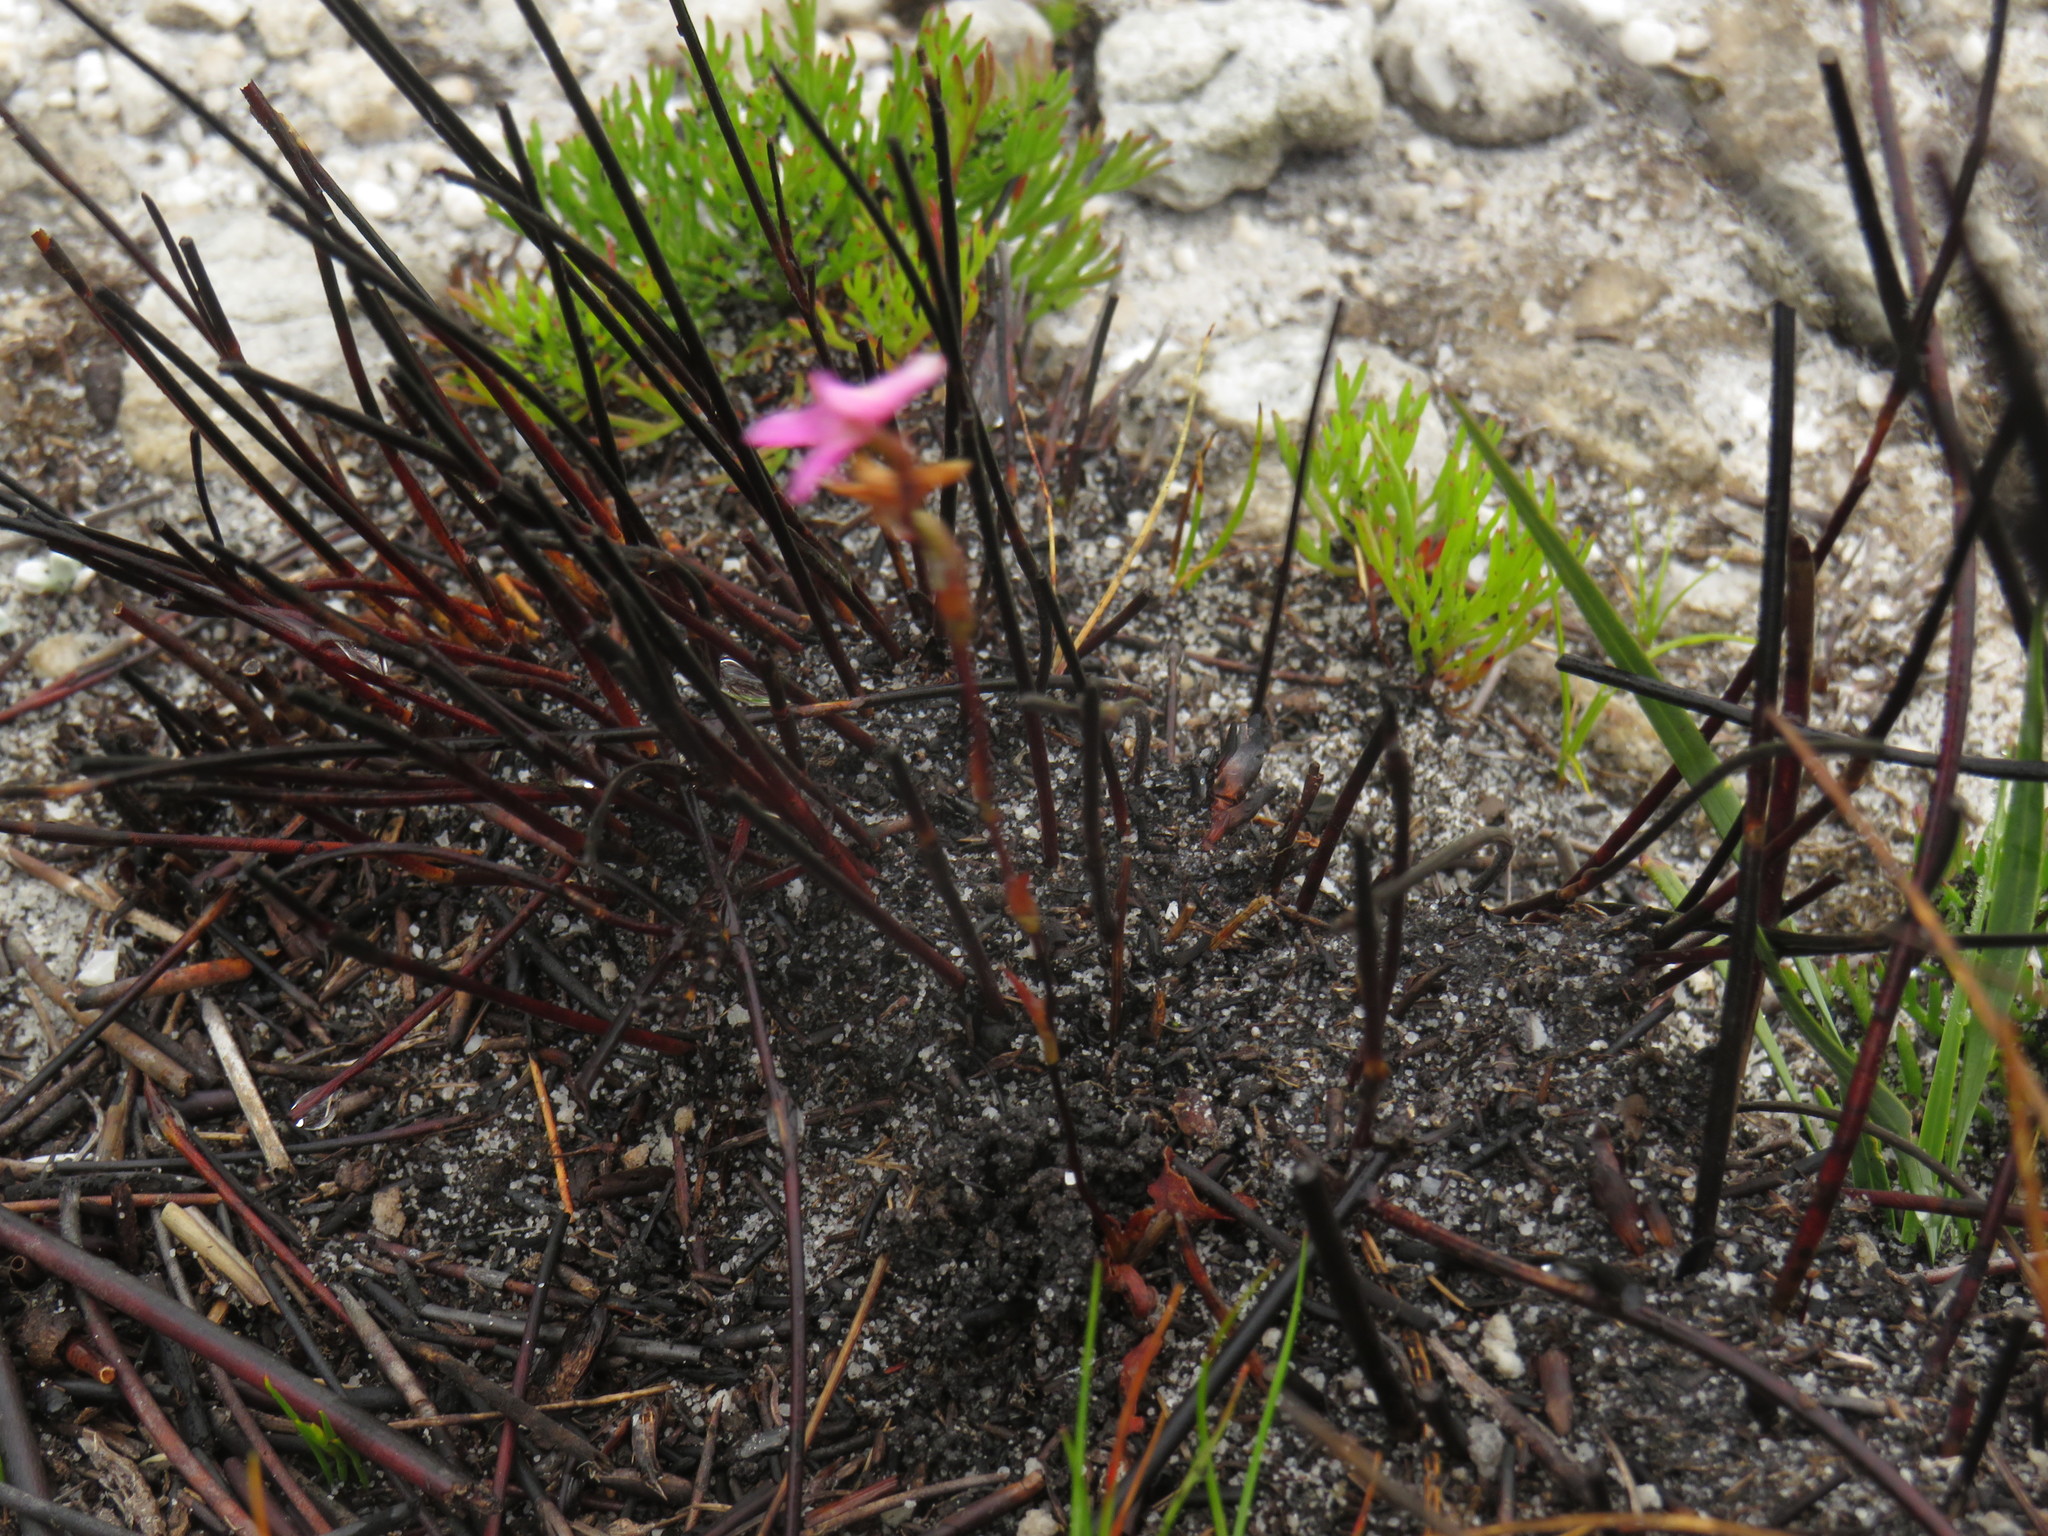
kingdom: Plantae
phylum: Tracheophyta
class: Liliopsida
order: Asparagales
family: Orchidaceae
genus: Disa
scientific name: Disa inflexa
